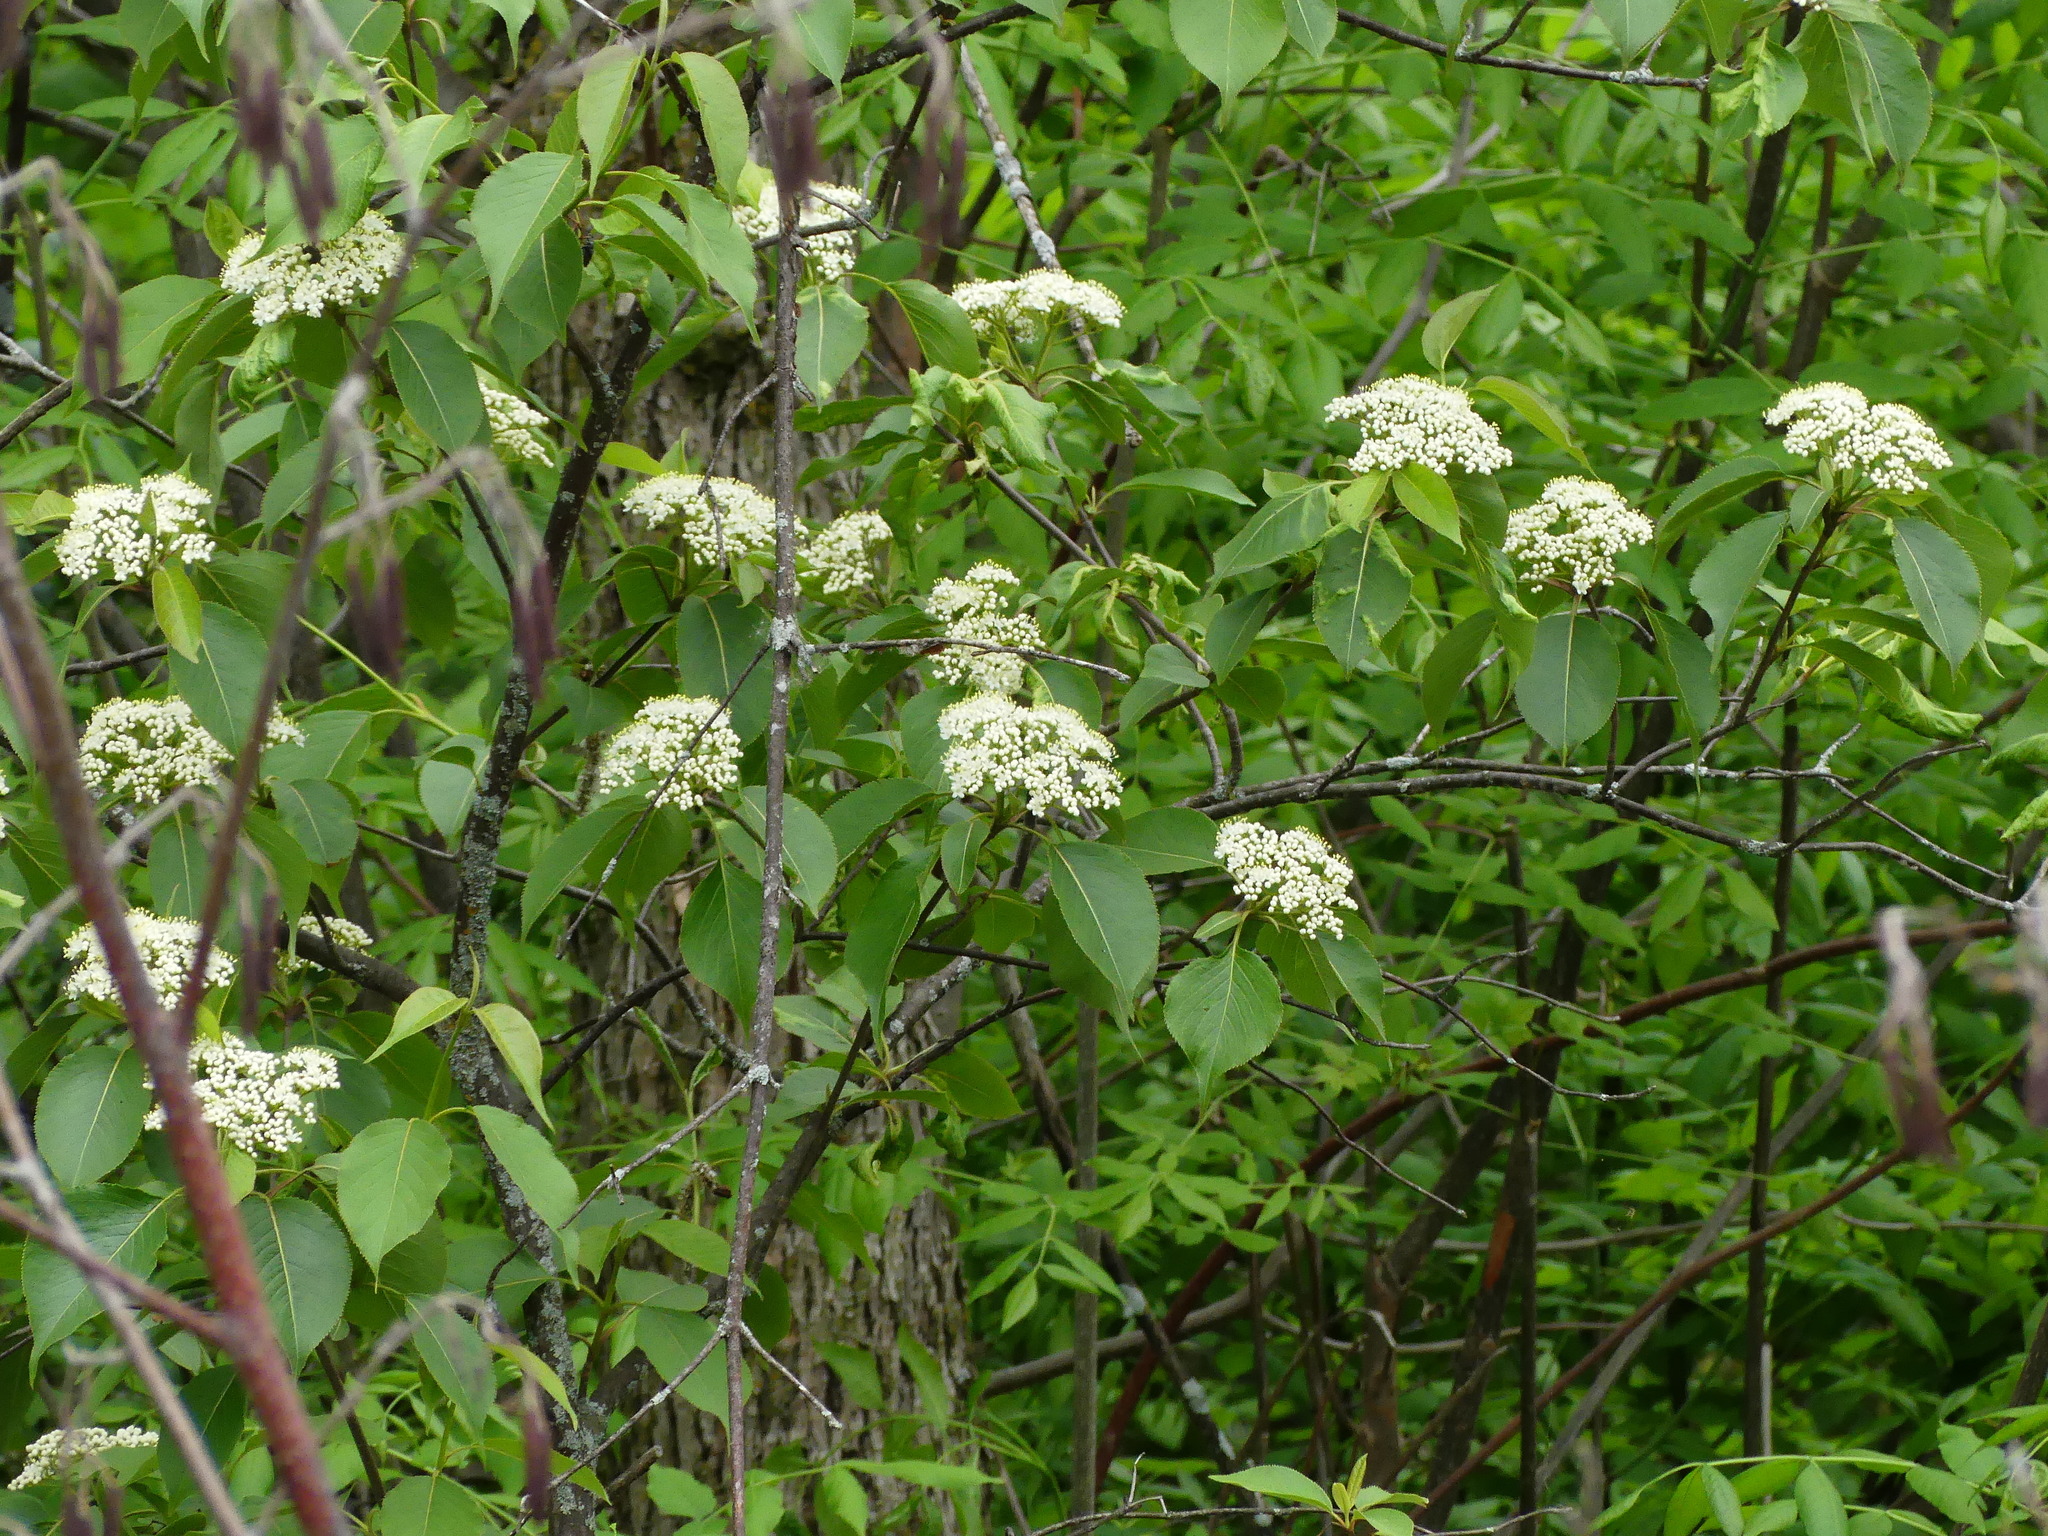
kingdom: Plantae
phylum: Tracheophyta
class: Magnoliopsida
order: Dipsacales
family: Viburnaceae
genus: Viburnum
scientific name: Viburnum lentago
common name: Black haw
